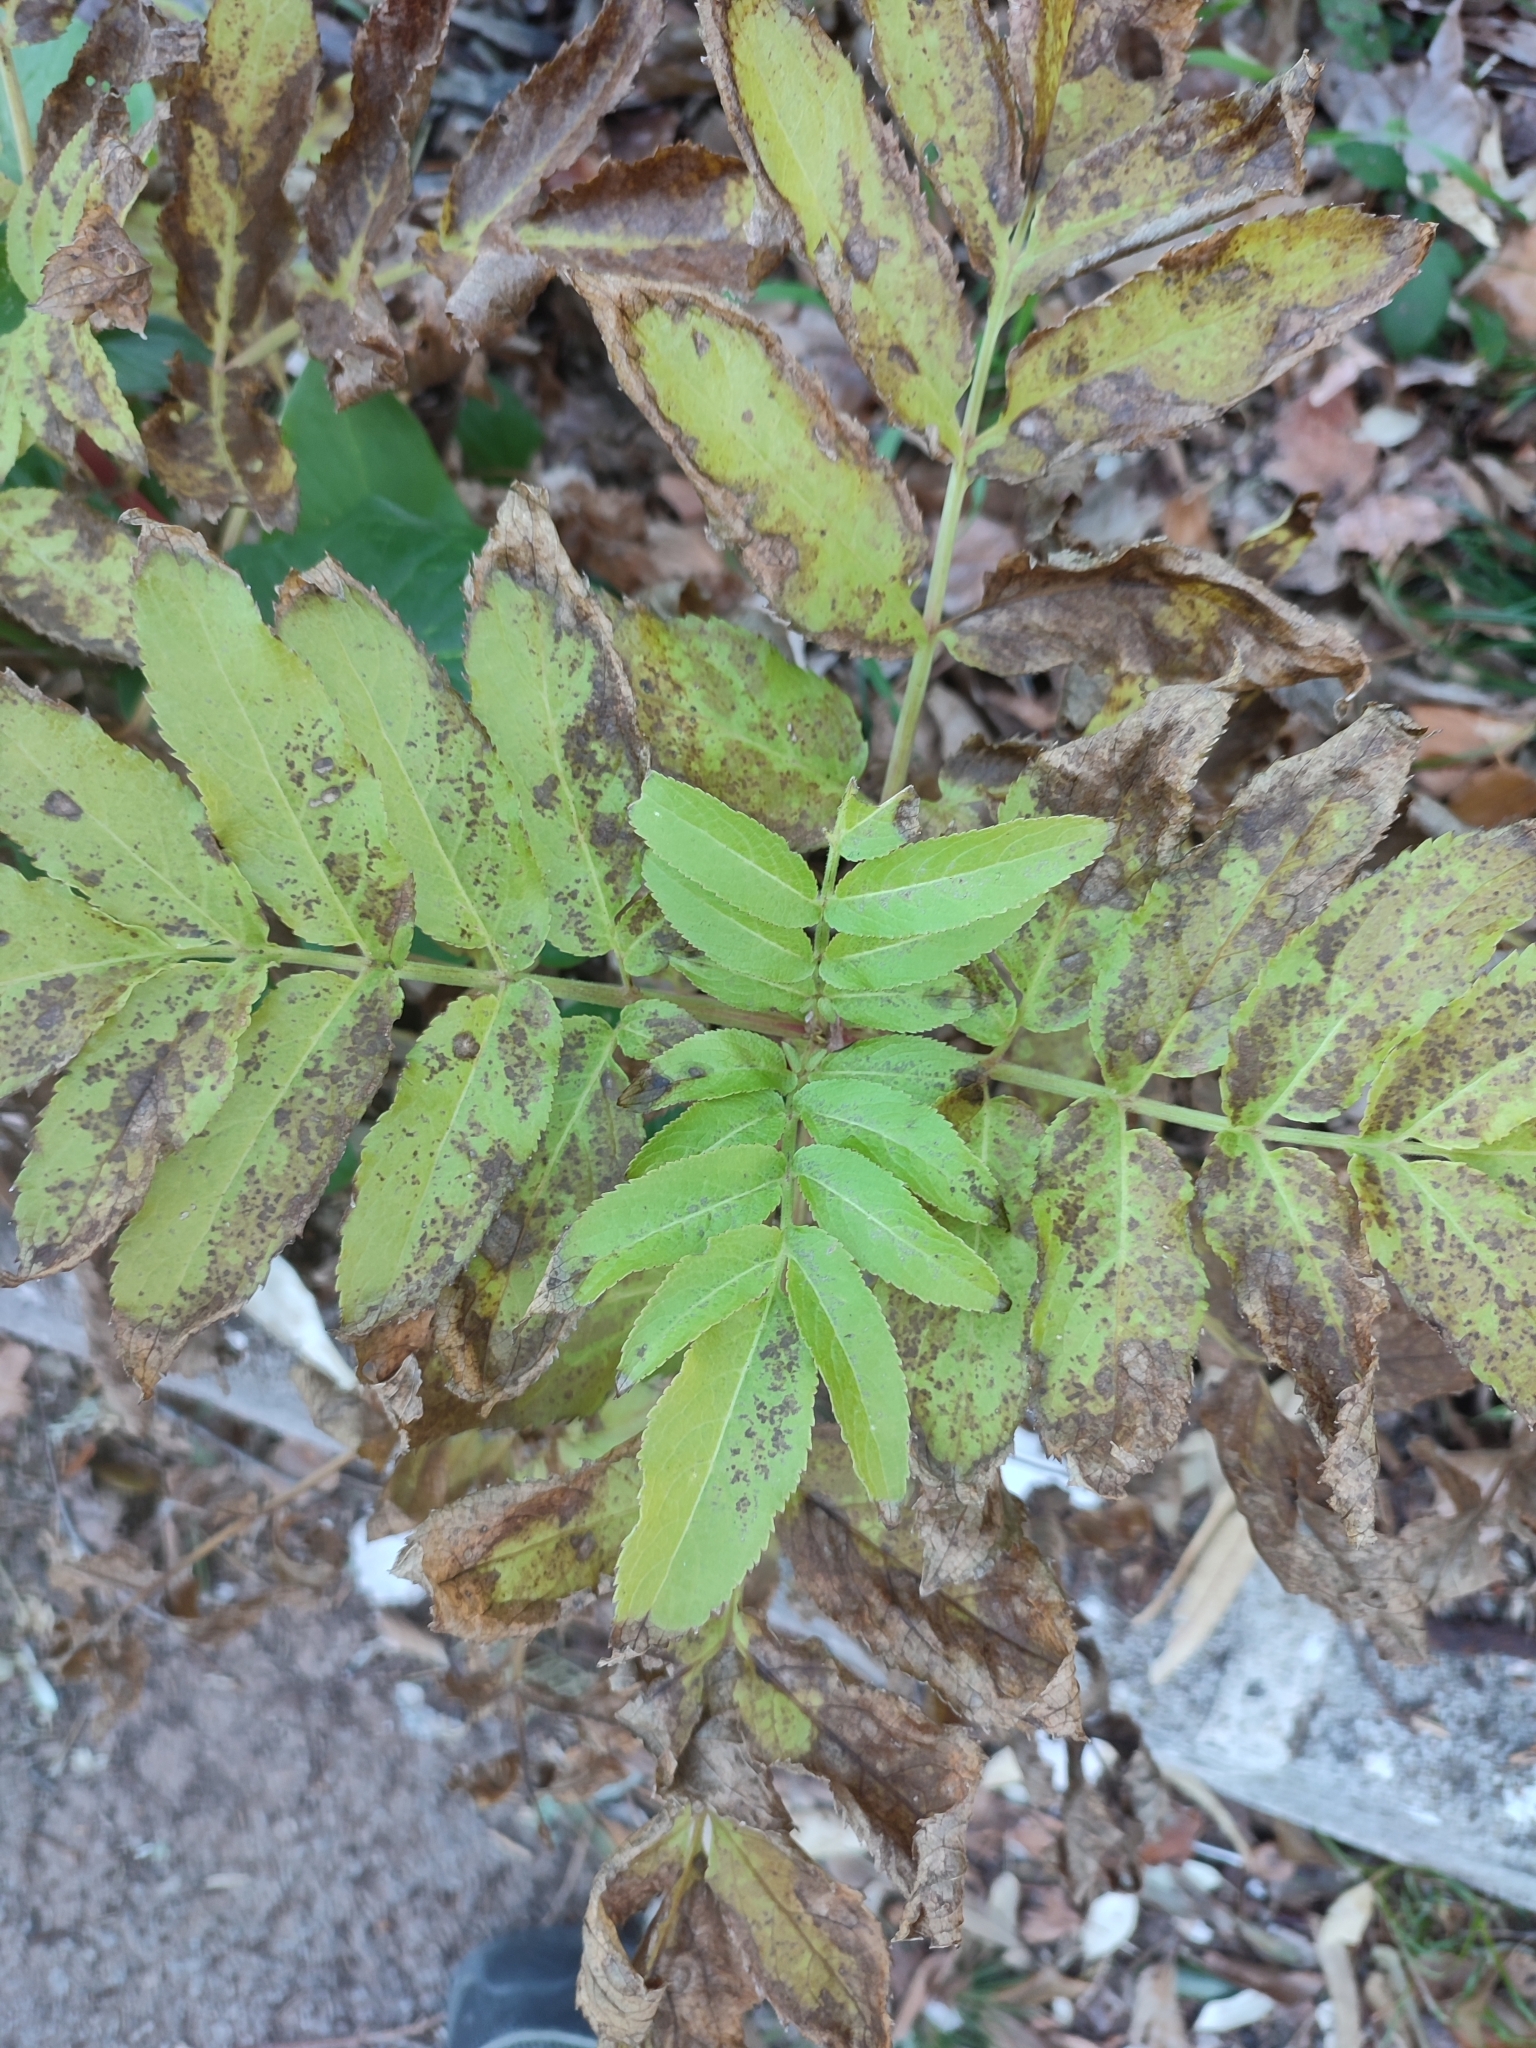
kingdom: Plantae
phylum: Tracheophyta
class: Magnoliopsida
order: Dipsacales
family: Viburnaceae
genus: Sambucus
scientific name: Sambucus ebulus
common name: Dwarf elder
